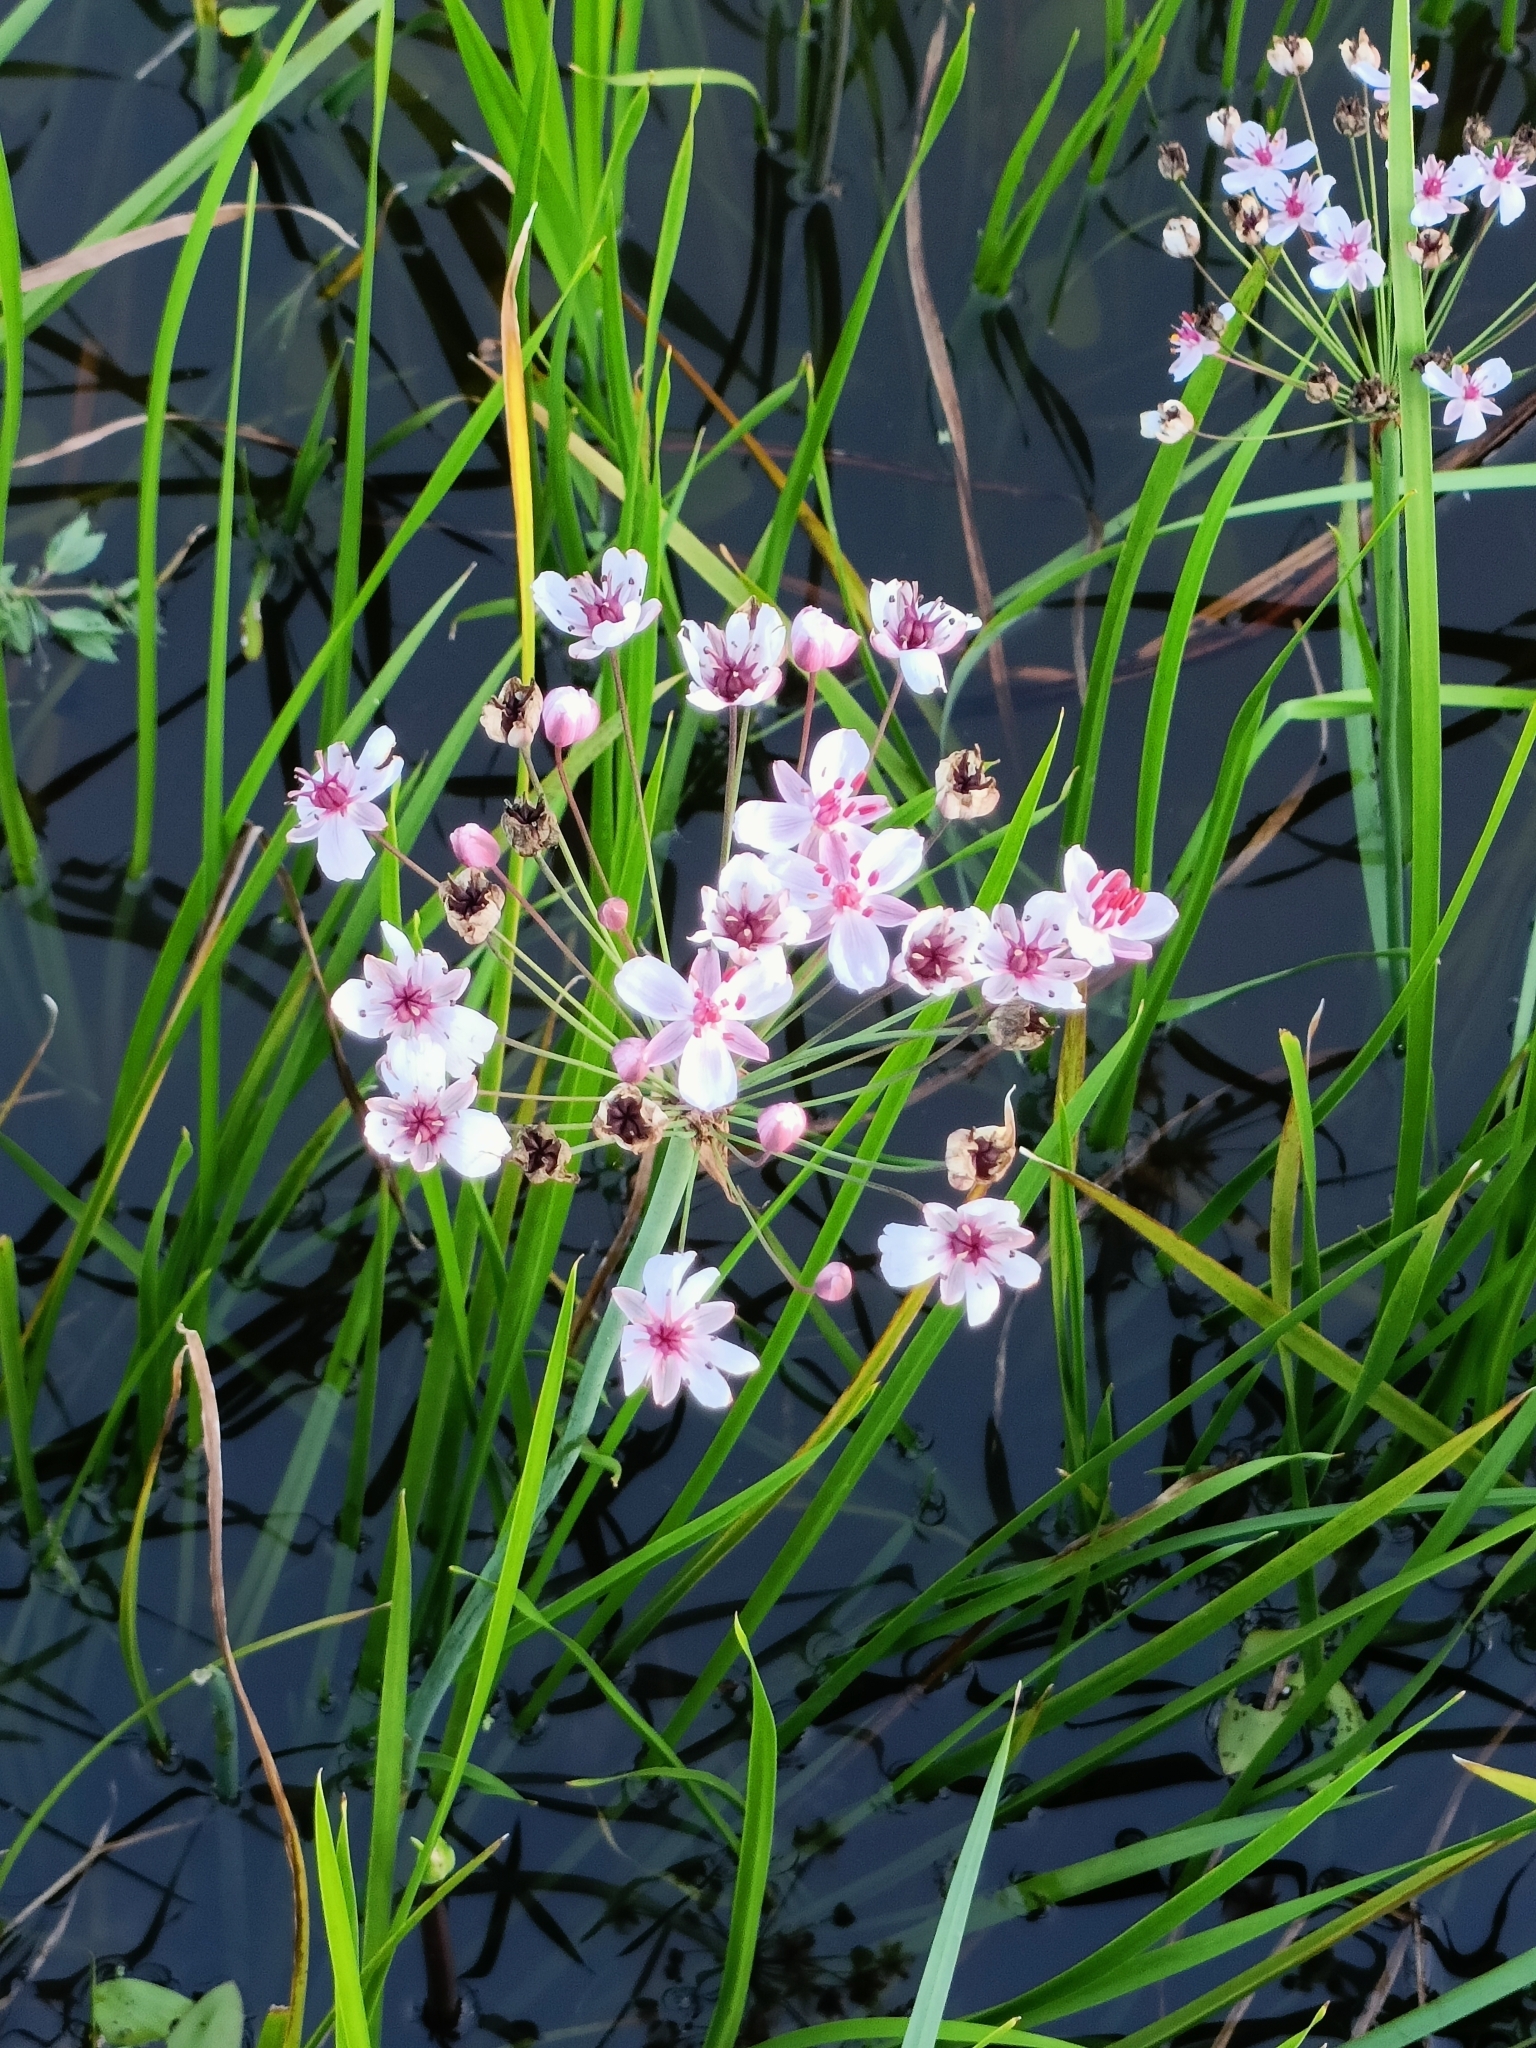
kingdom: Plantae
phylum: Tracheophyta
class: Liliopsida
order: Alismatales
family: Butomaceae
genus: Butomus
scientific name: Butomus umbellatus
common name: Flowering-rush
